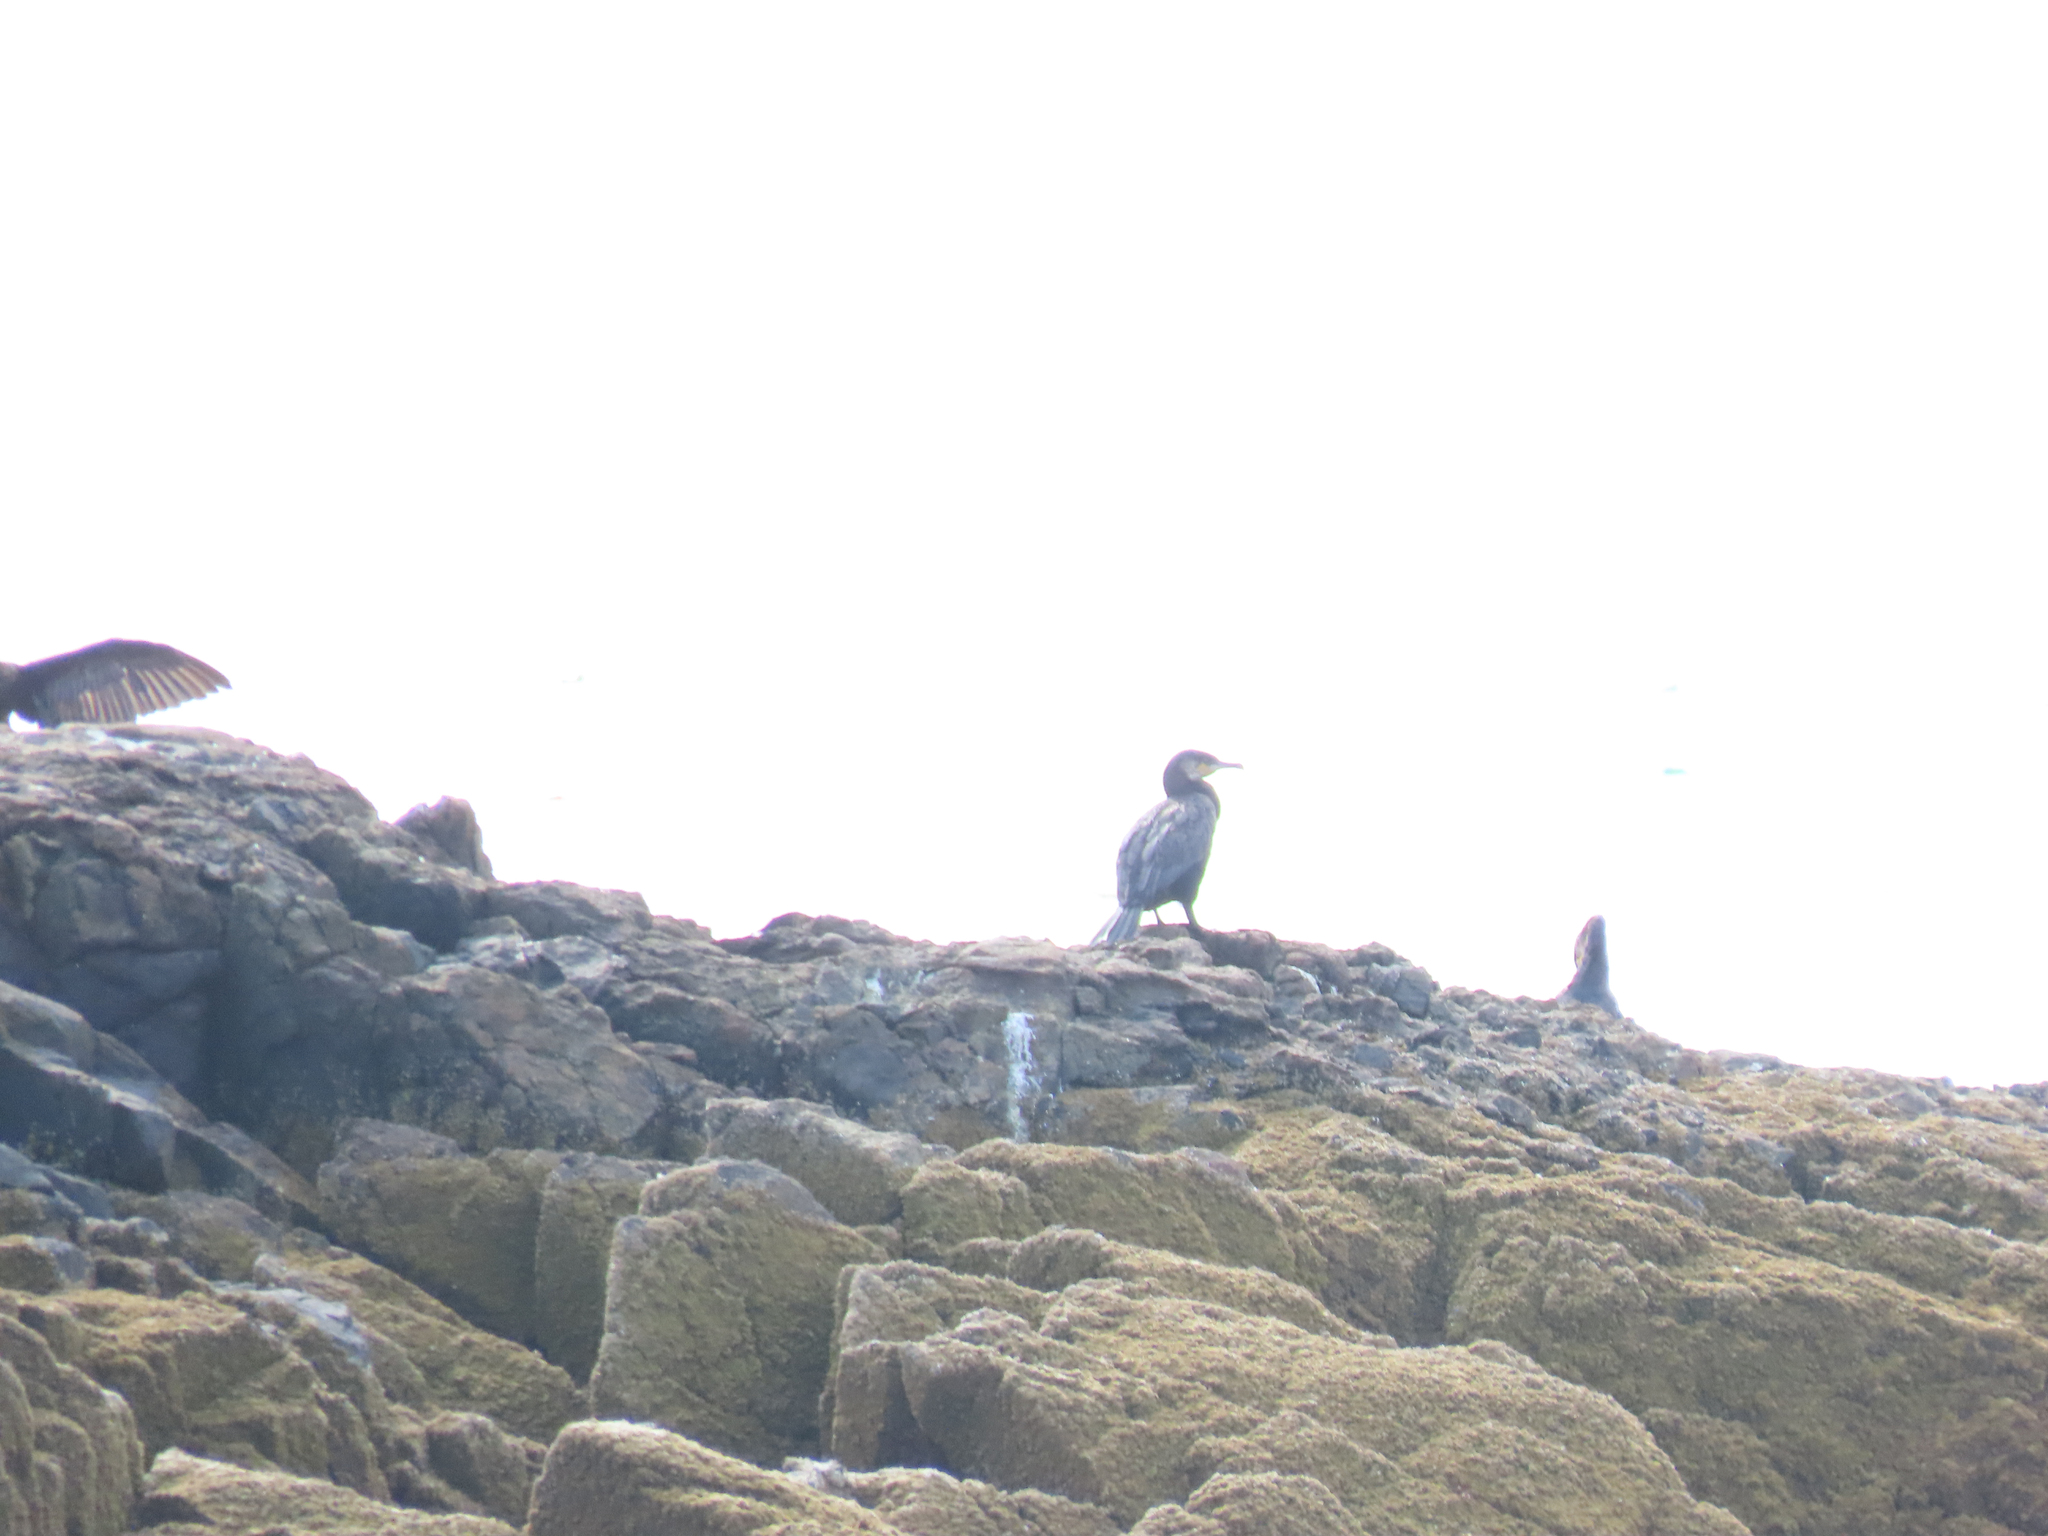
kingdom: Animalia
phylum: Chordata
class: Aves
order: Suliformes
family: Phalacrocoracidae
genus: Phalacrocorax
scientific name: Phalacrocorax carbo
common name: Great cormorant
